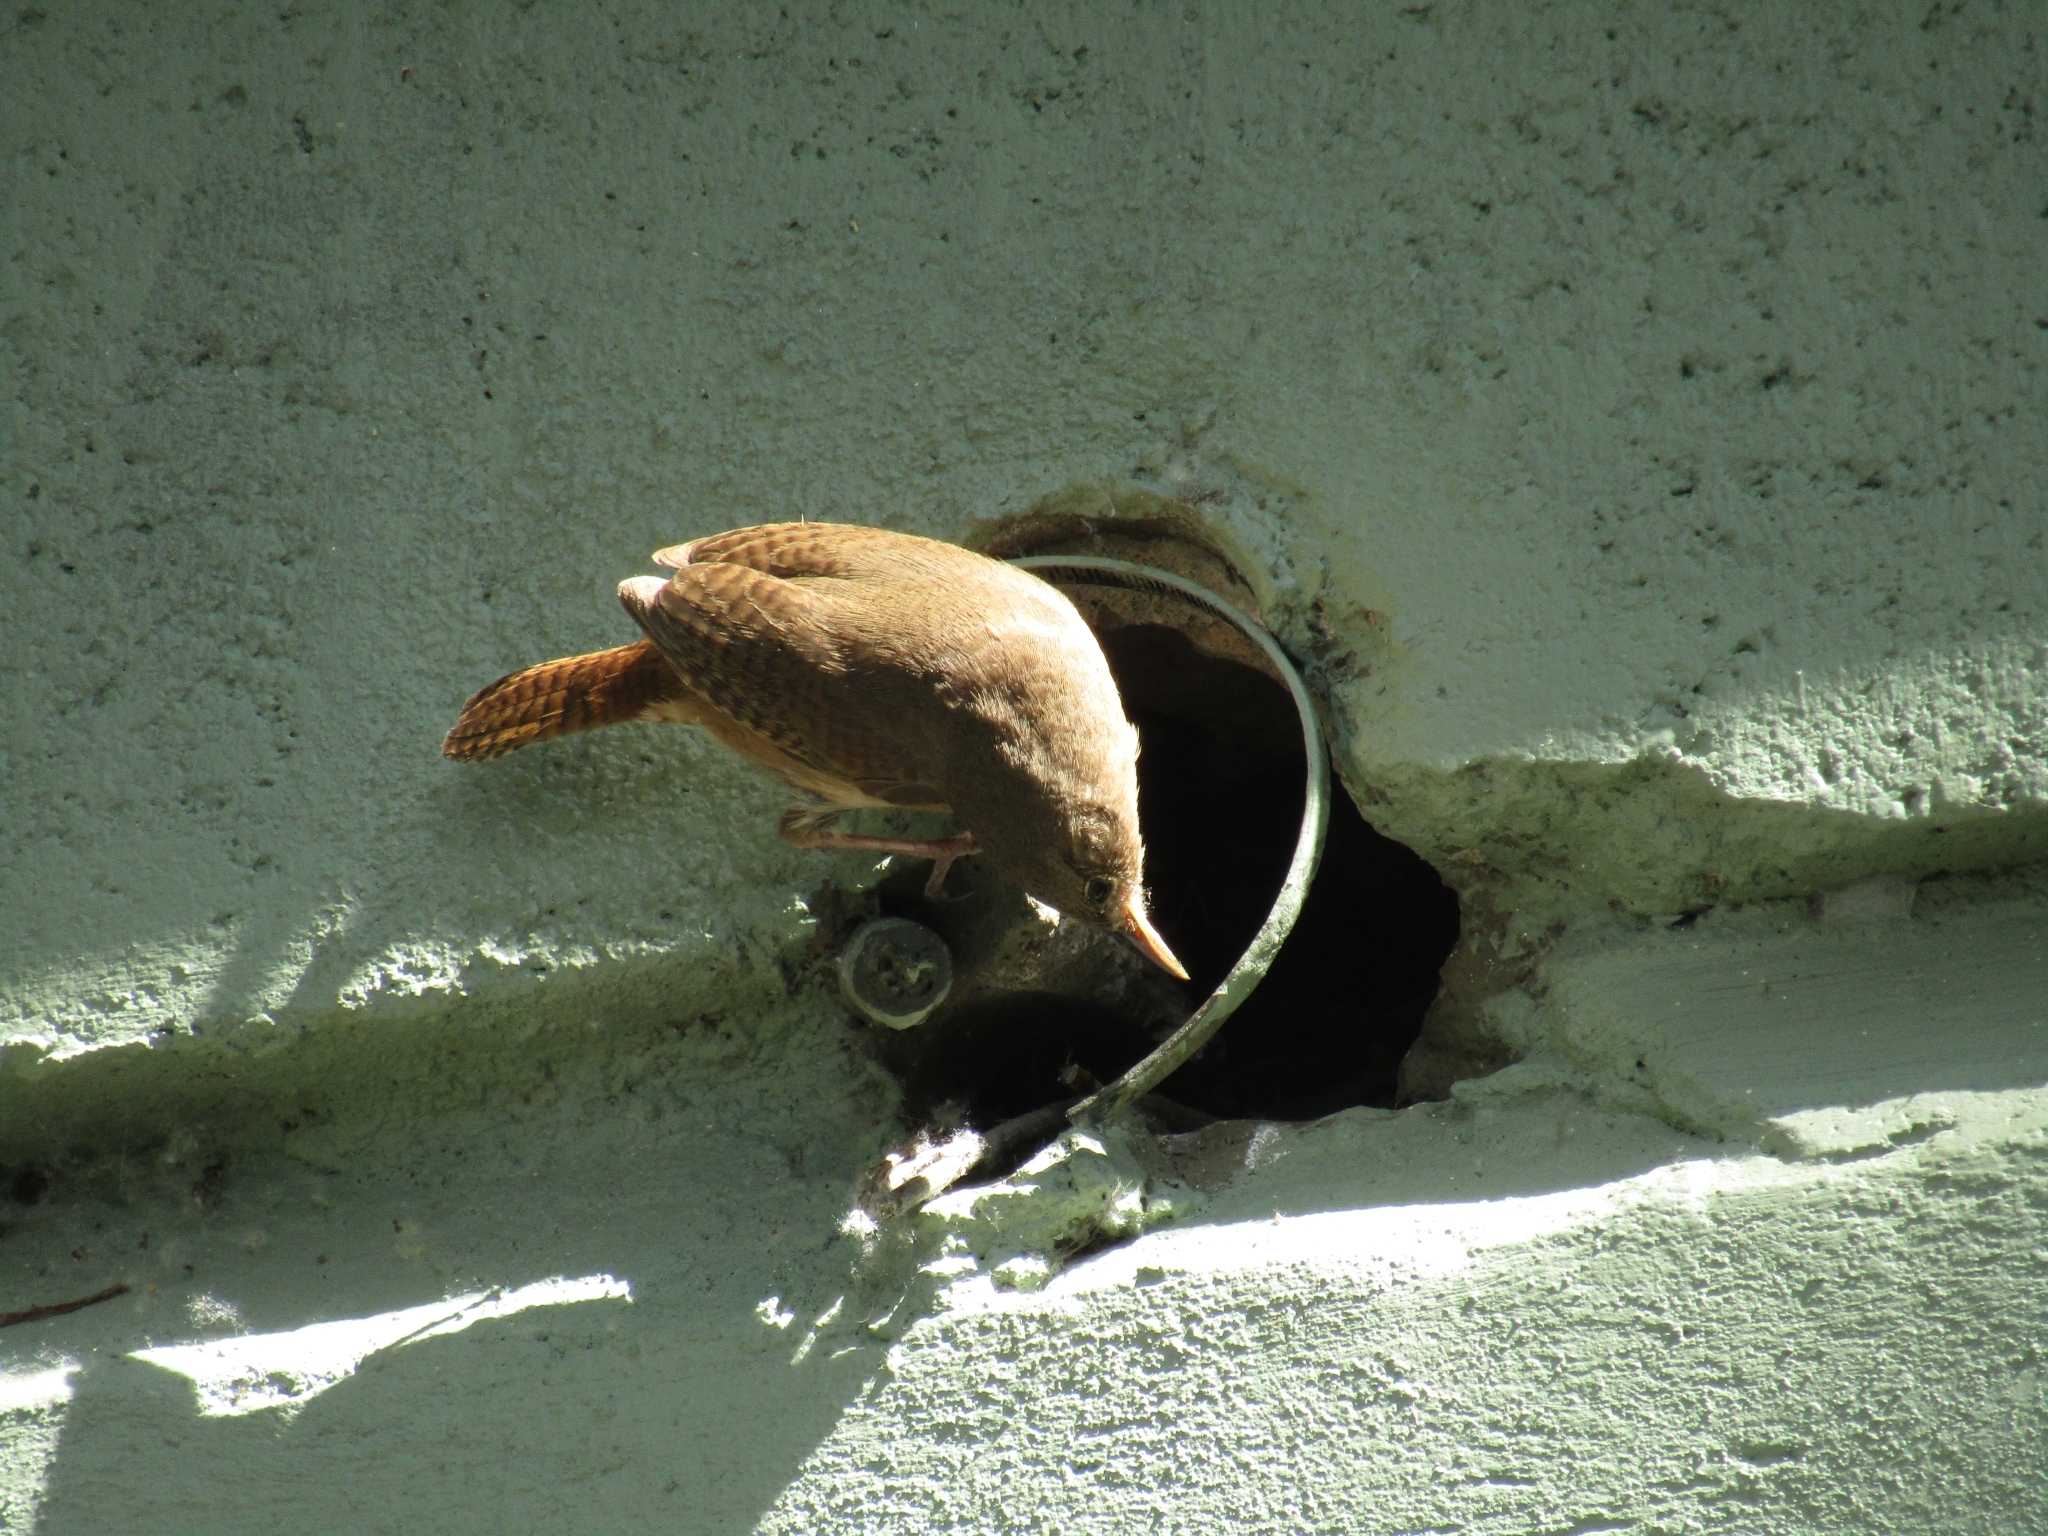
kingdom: Animalia
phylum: Chordata
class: Aves
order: Passeriformes
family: Troglodytidae
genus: Troglodytes
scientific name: Troglodytes aedon
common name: House wren
